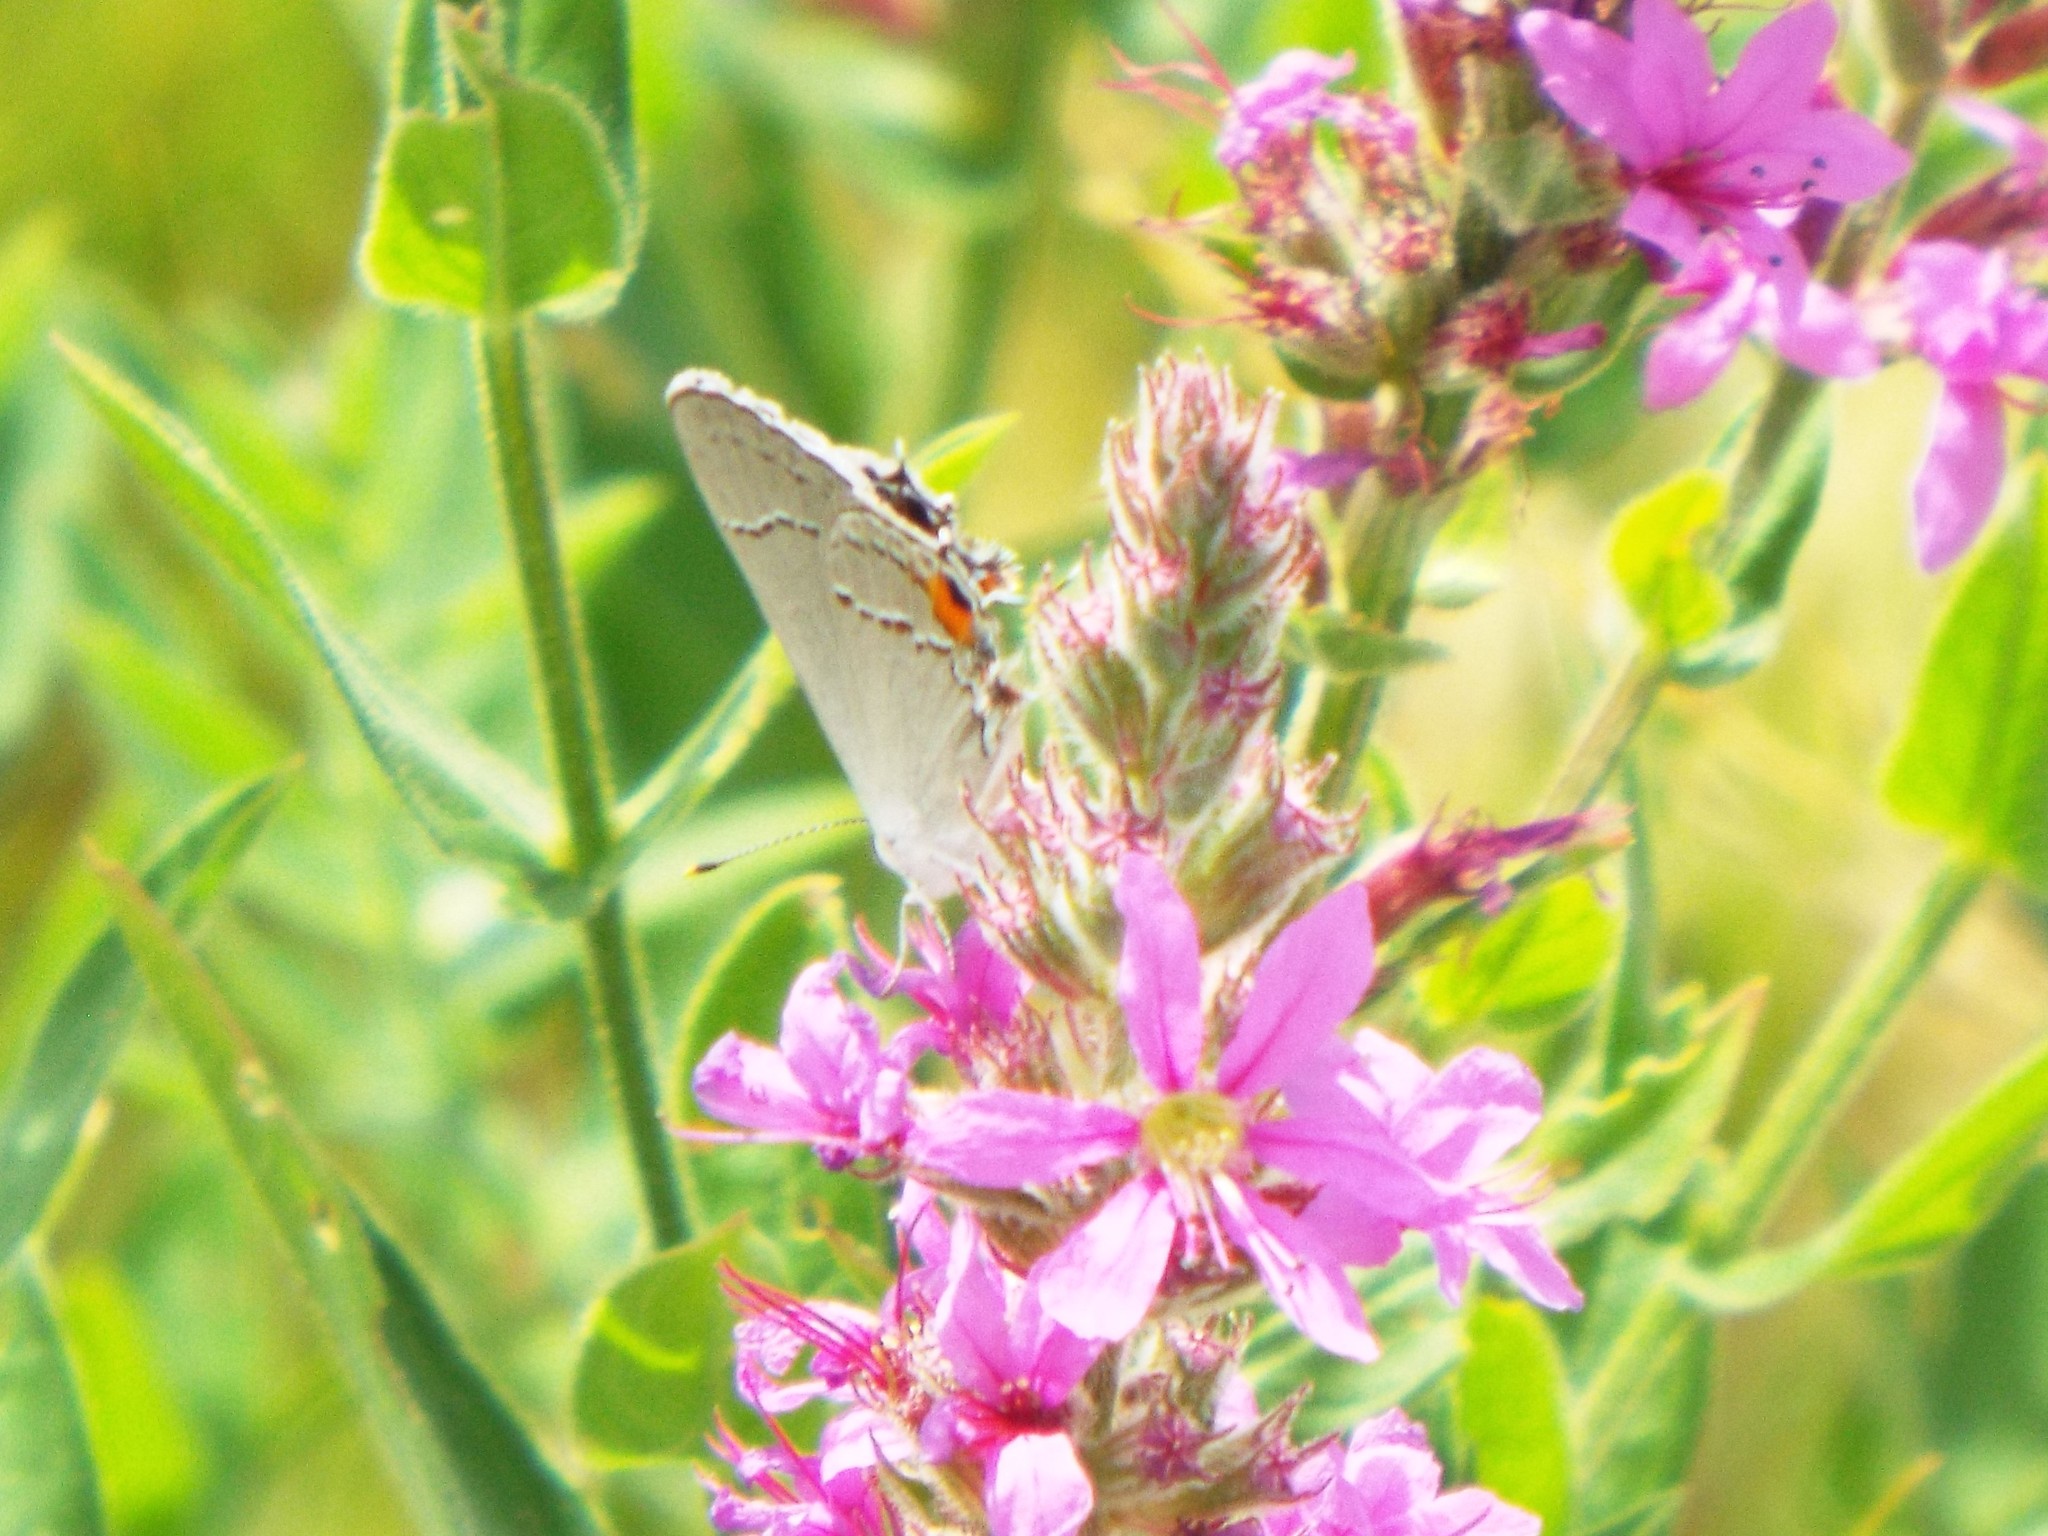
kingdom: Animalia
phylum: Arthropoda
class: Insecta
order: Lepidoptera
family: Lycaenidae
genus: Strymon
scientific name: Strymon melinus
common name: Gray hairstreak
